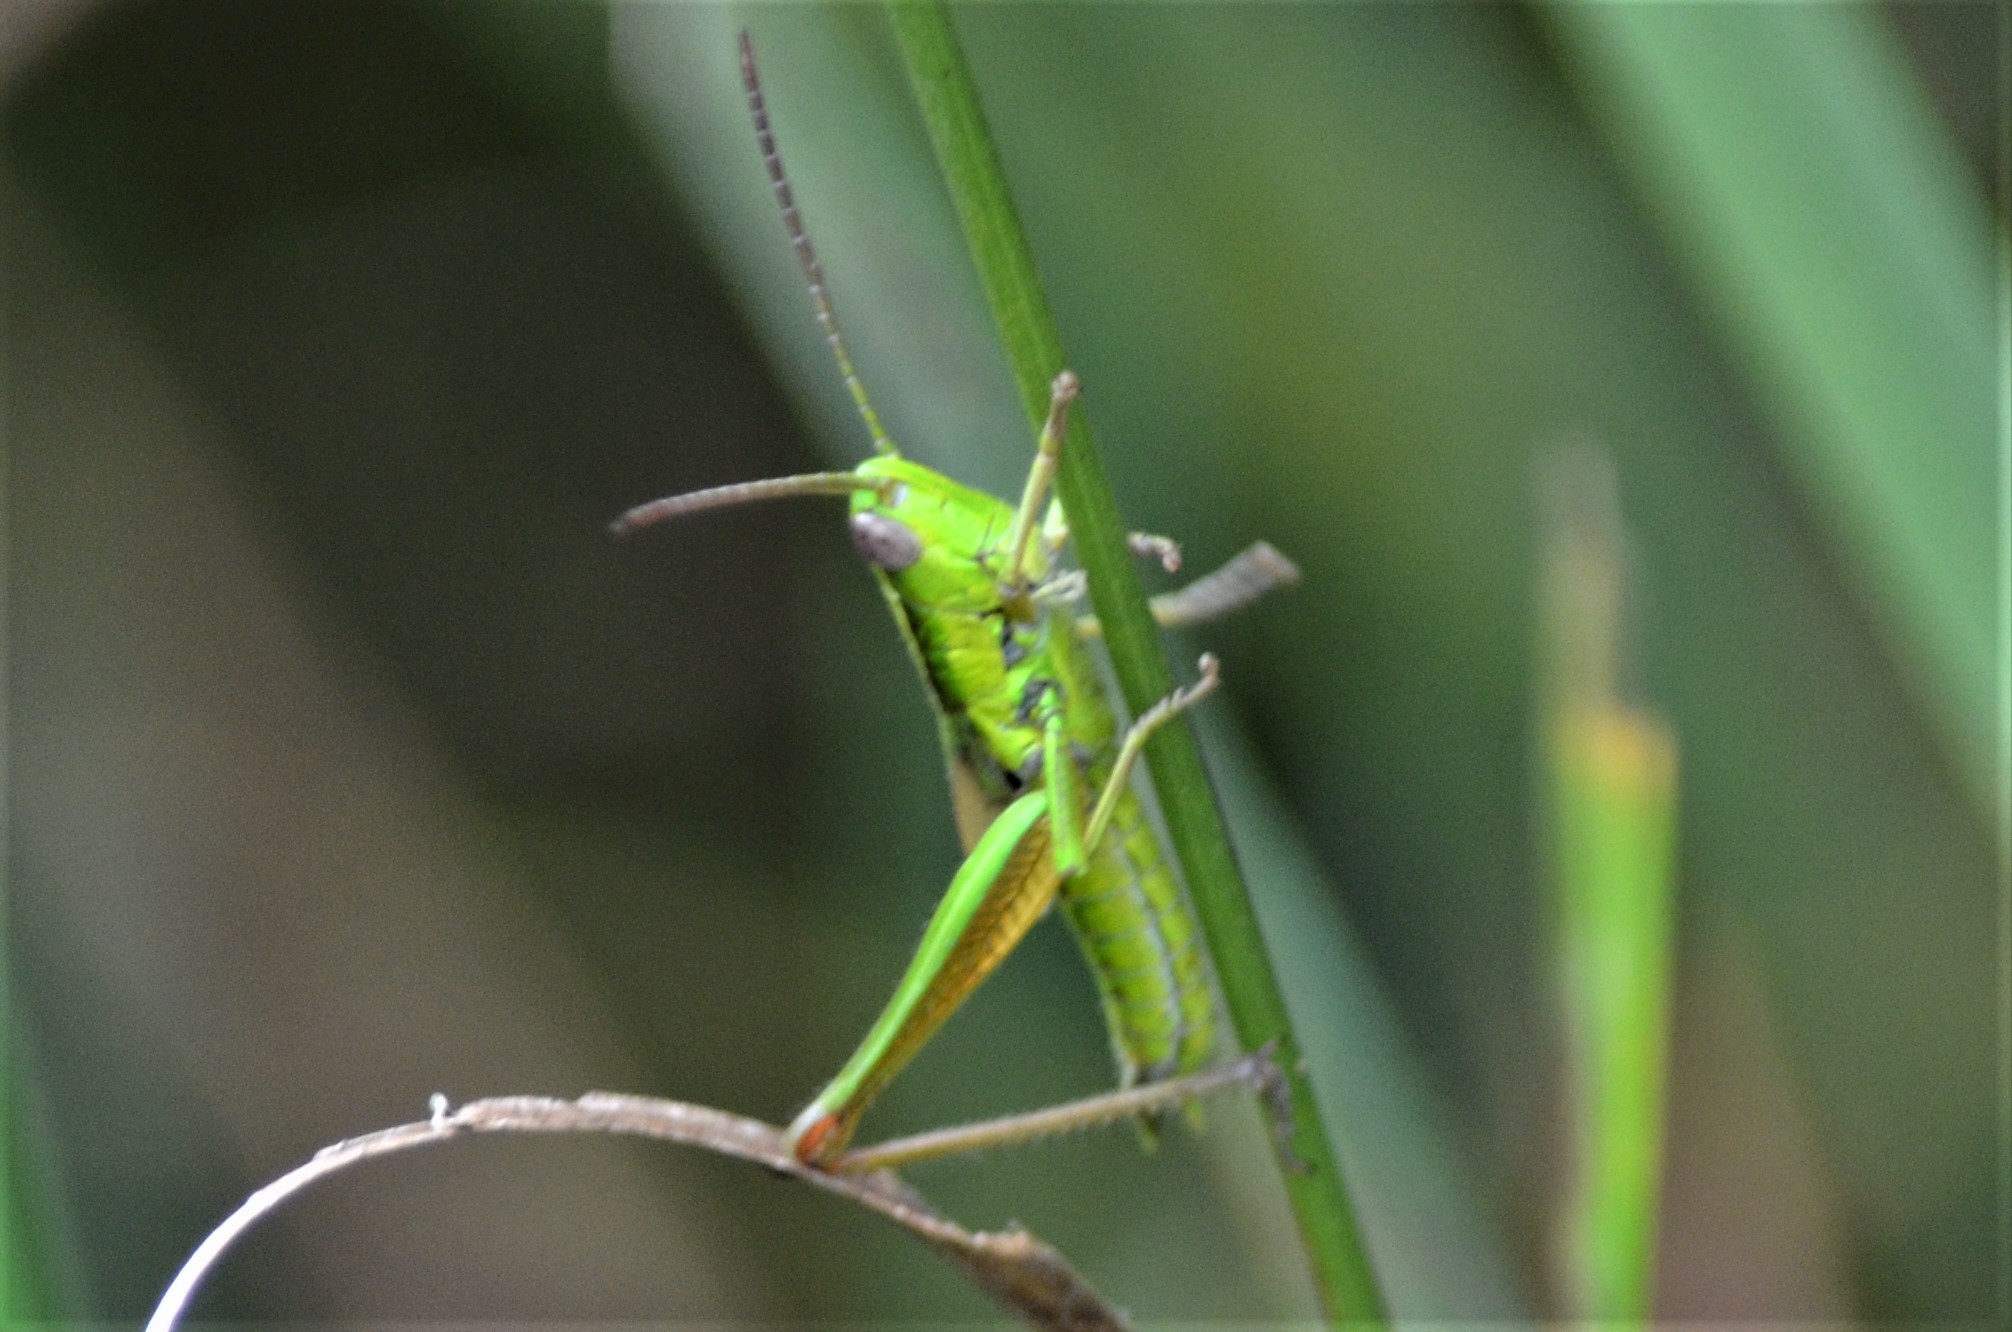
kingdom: Animalia
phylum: Arthropoda
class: Insecta
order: Orthoptera
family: Acrididae
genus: Euthystira
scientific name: Euthystira brachyptera
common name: Small gold grasshopper
